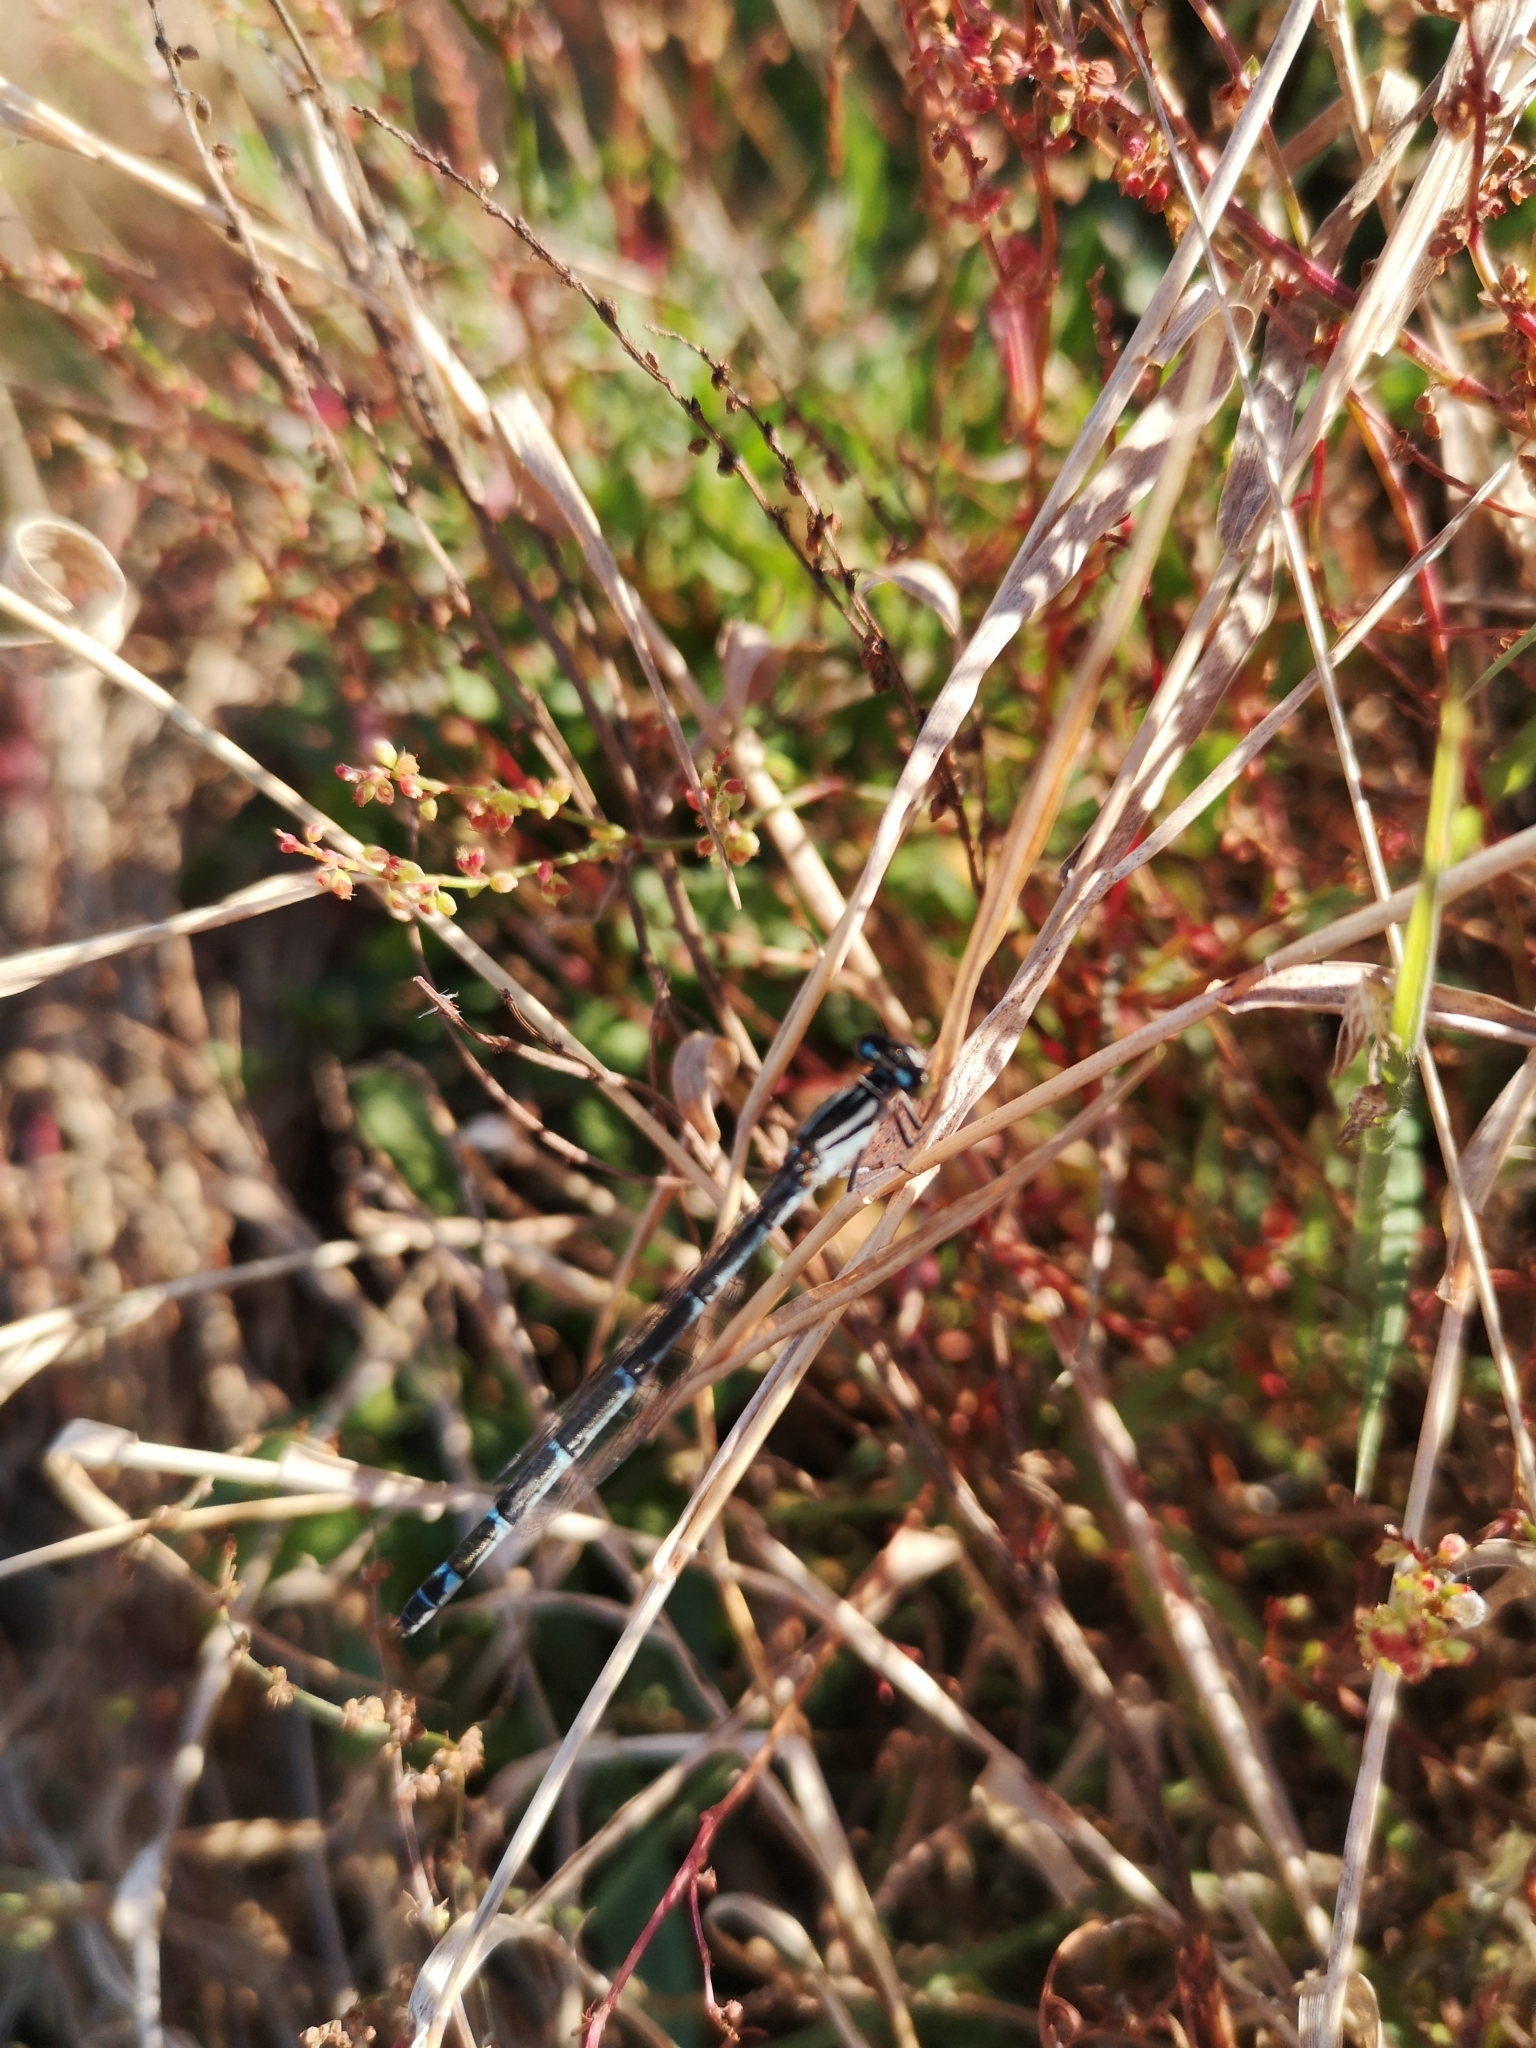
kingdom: Animalia
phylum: Arthropoda
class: Insecta
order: Odonata
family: Coenagrionidae
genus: Enallagma
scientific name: Enallagma cyathigerum
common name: Common blue damselfly
